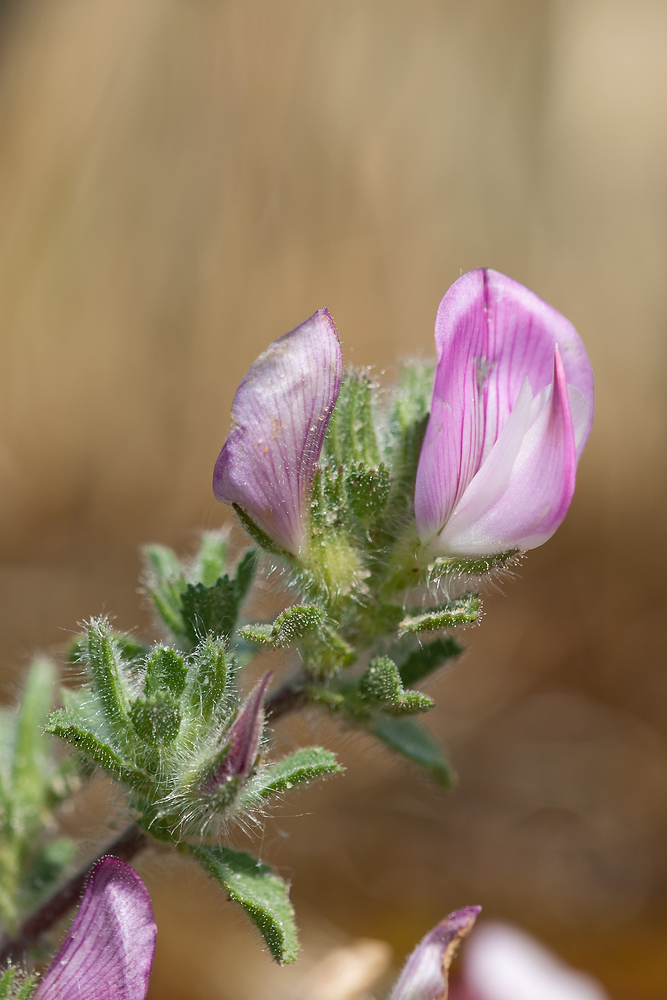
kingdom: Plantae
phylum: Tracheophyta
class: Magnoliopsida
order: Fabales
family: Fabaceae
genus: Ononis
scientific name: Ononis spinosa
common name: Spiny restharrow
